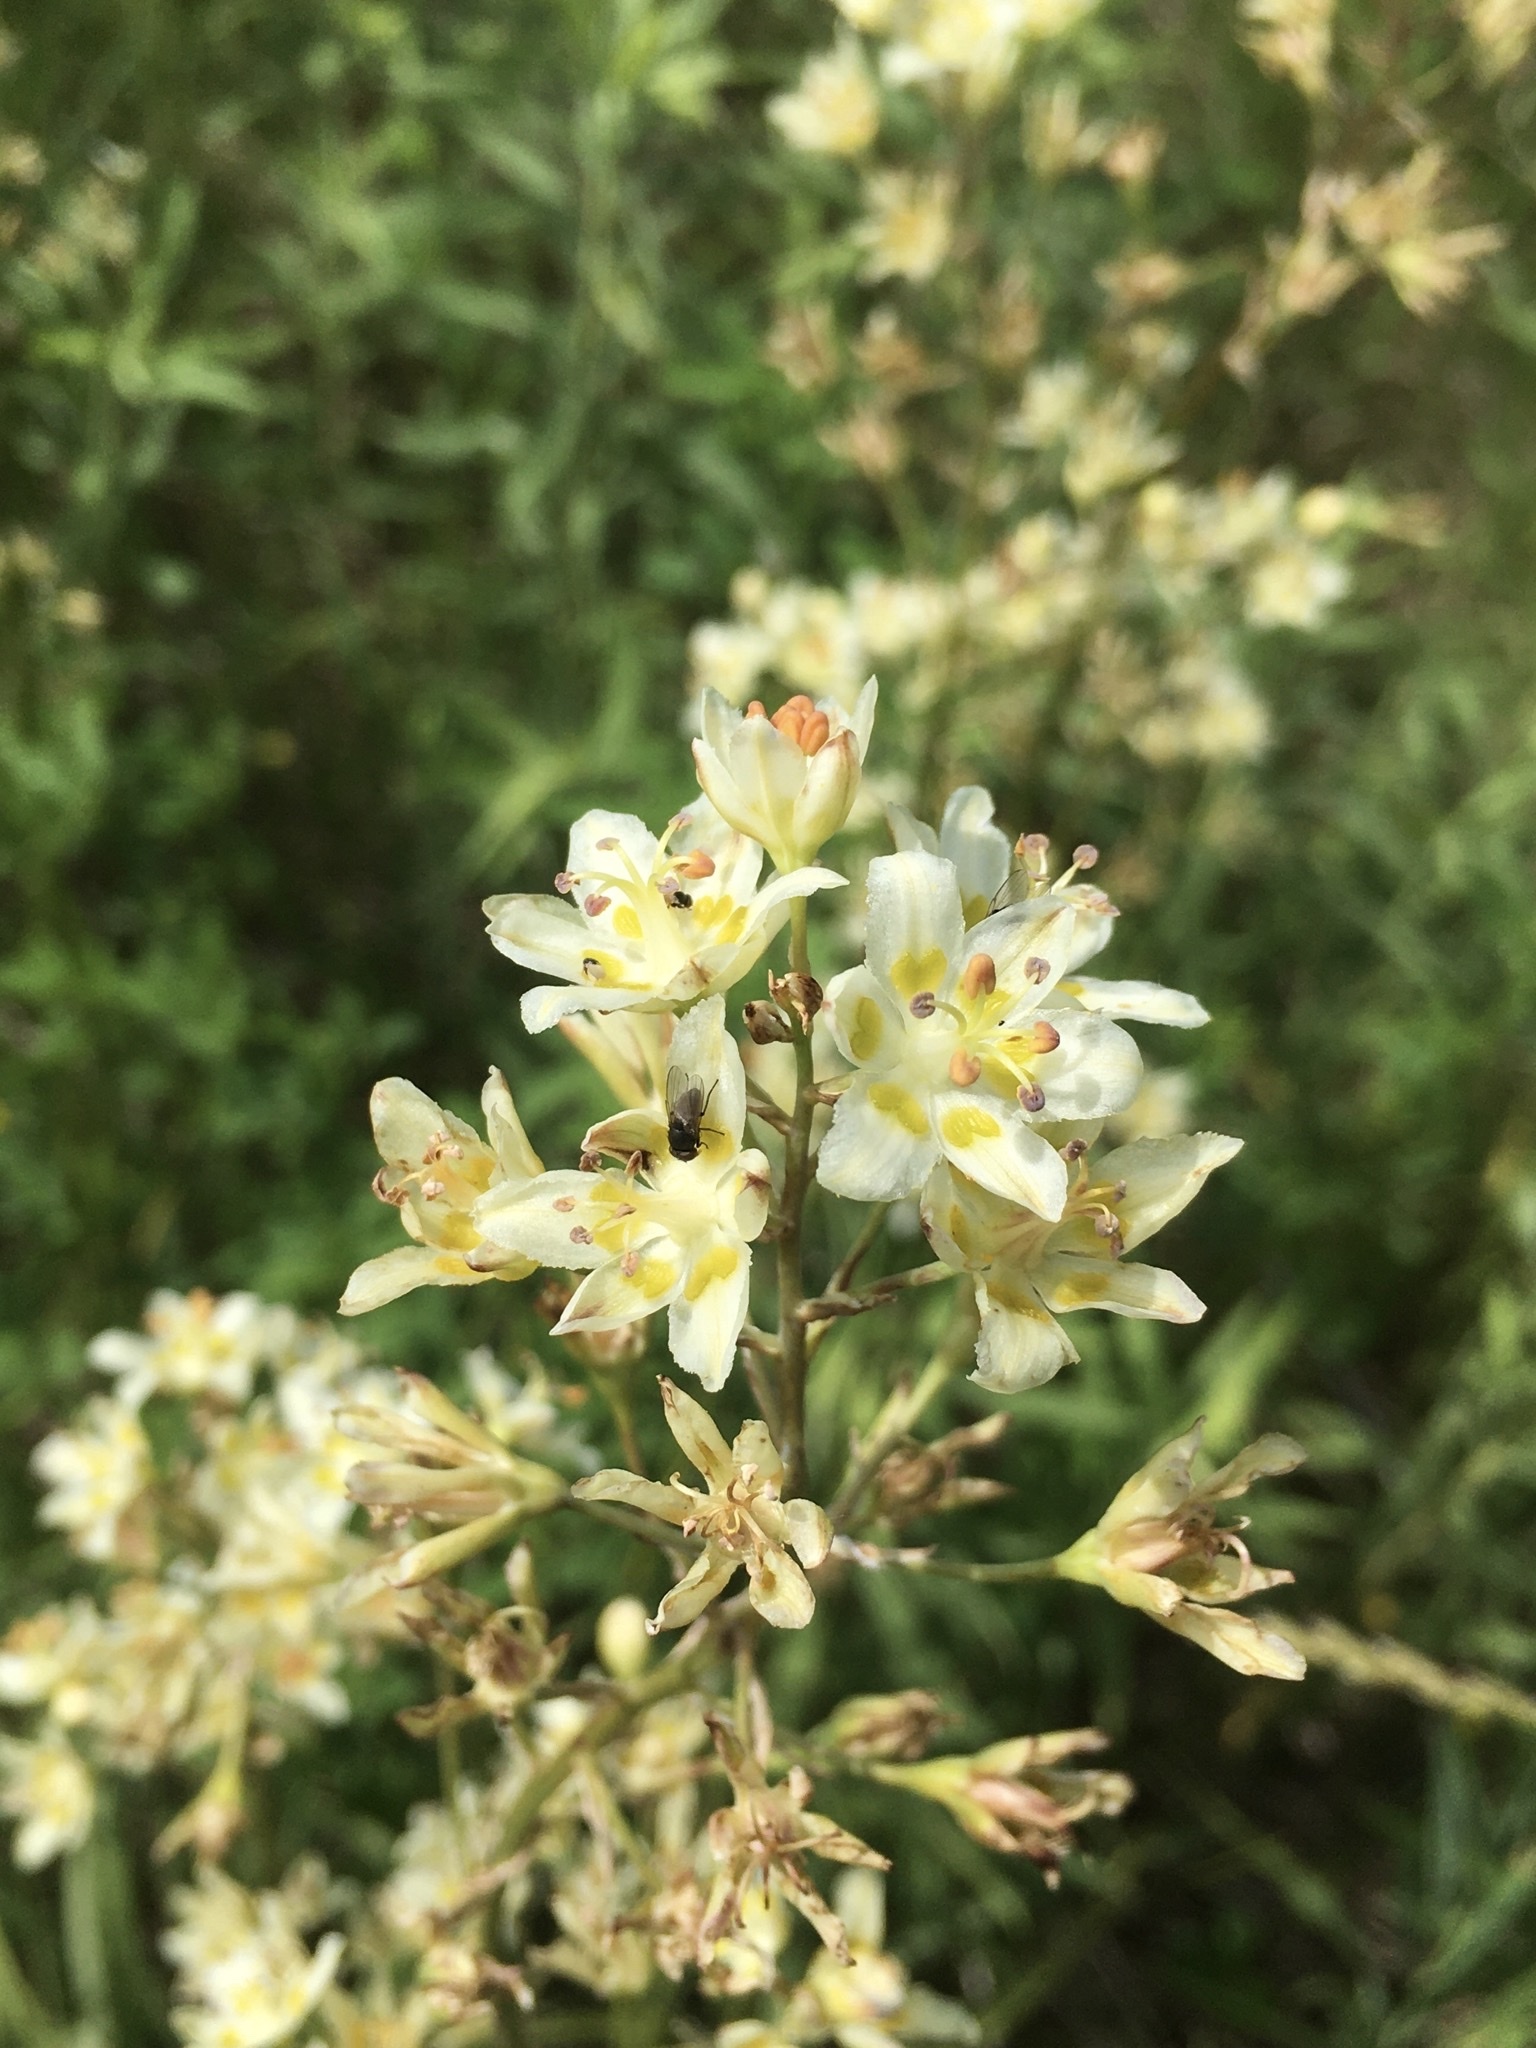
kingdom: Plantae
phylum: Tracheophyta
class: Liliopsida
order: Liliales
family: Melanthiaceae
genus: Anticlea
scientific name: Anticlea elegans
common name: Mountain death camas
